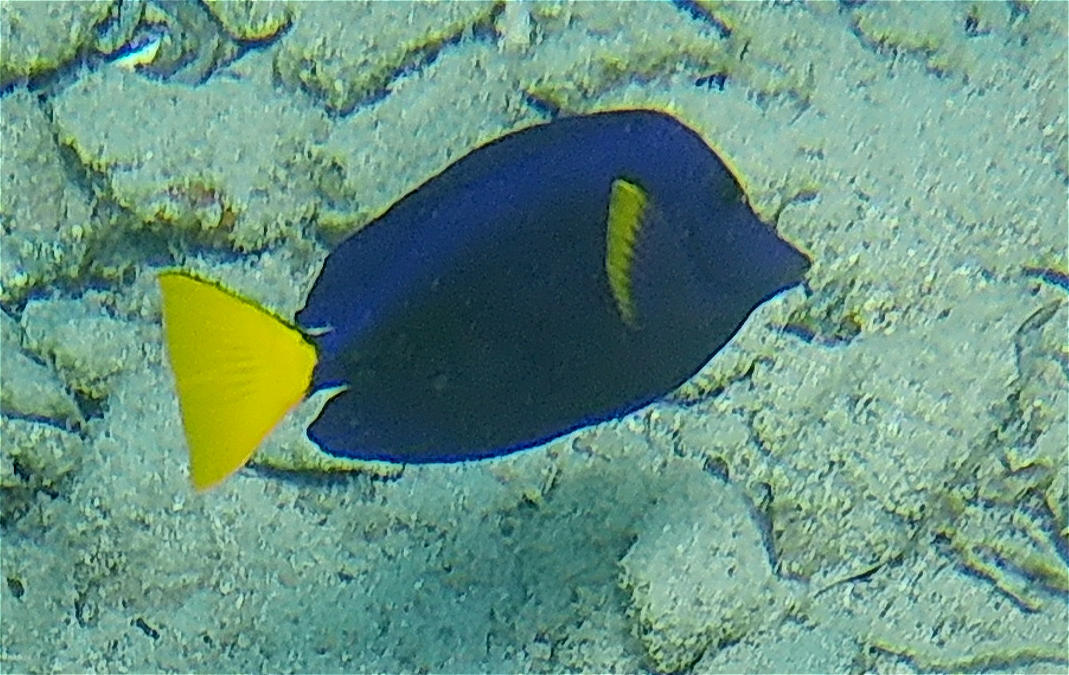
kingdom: Animalia
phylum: Chordata
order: Perciformes
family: Acanthuridae
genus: Zebrasoma
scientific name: Zebrasoma xanthurum
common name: Purple tang
